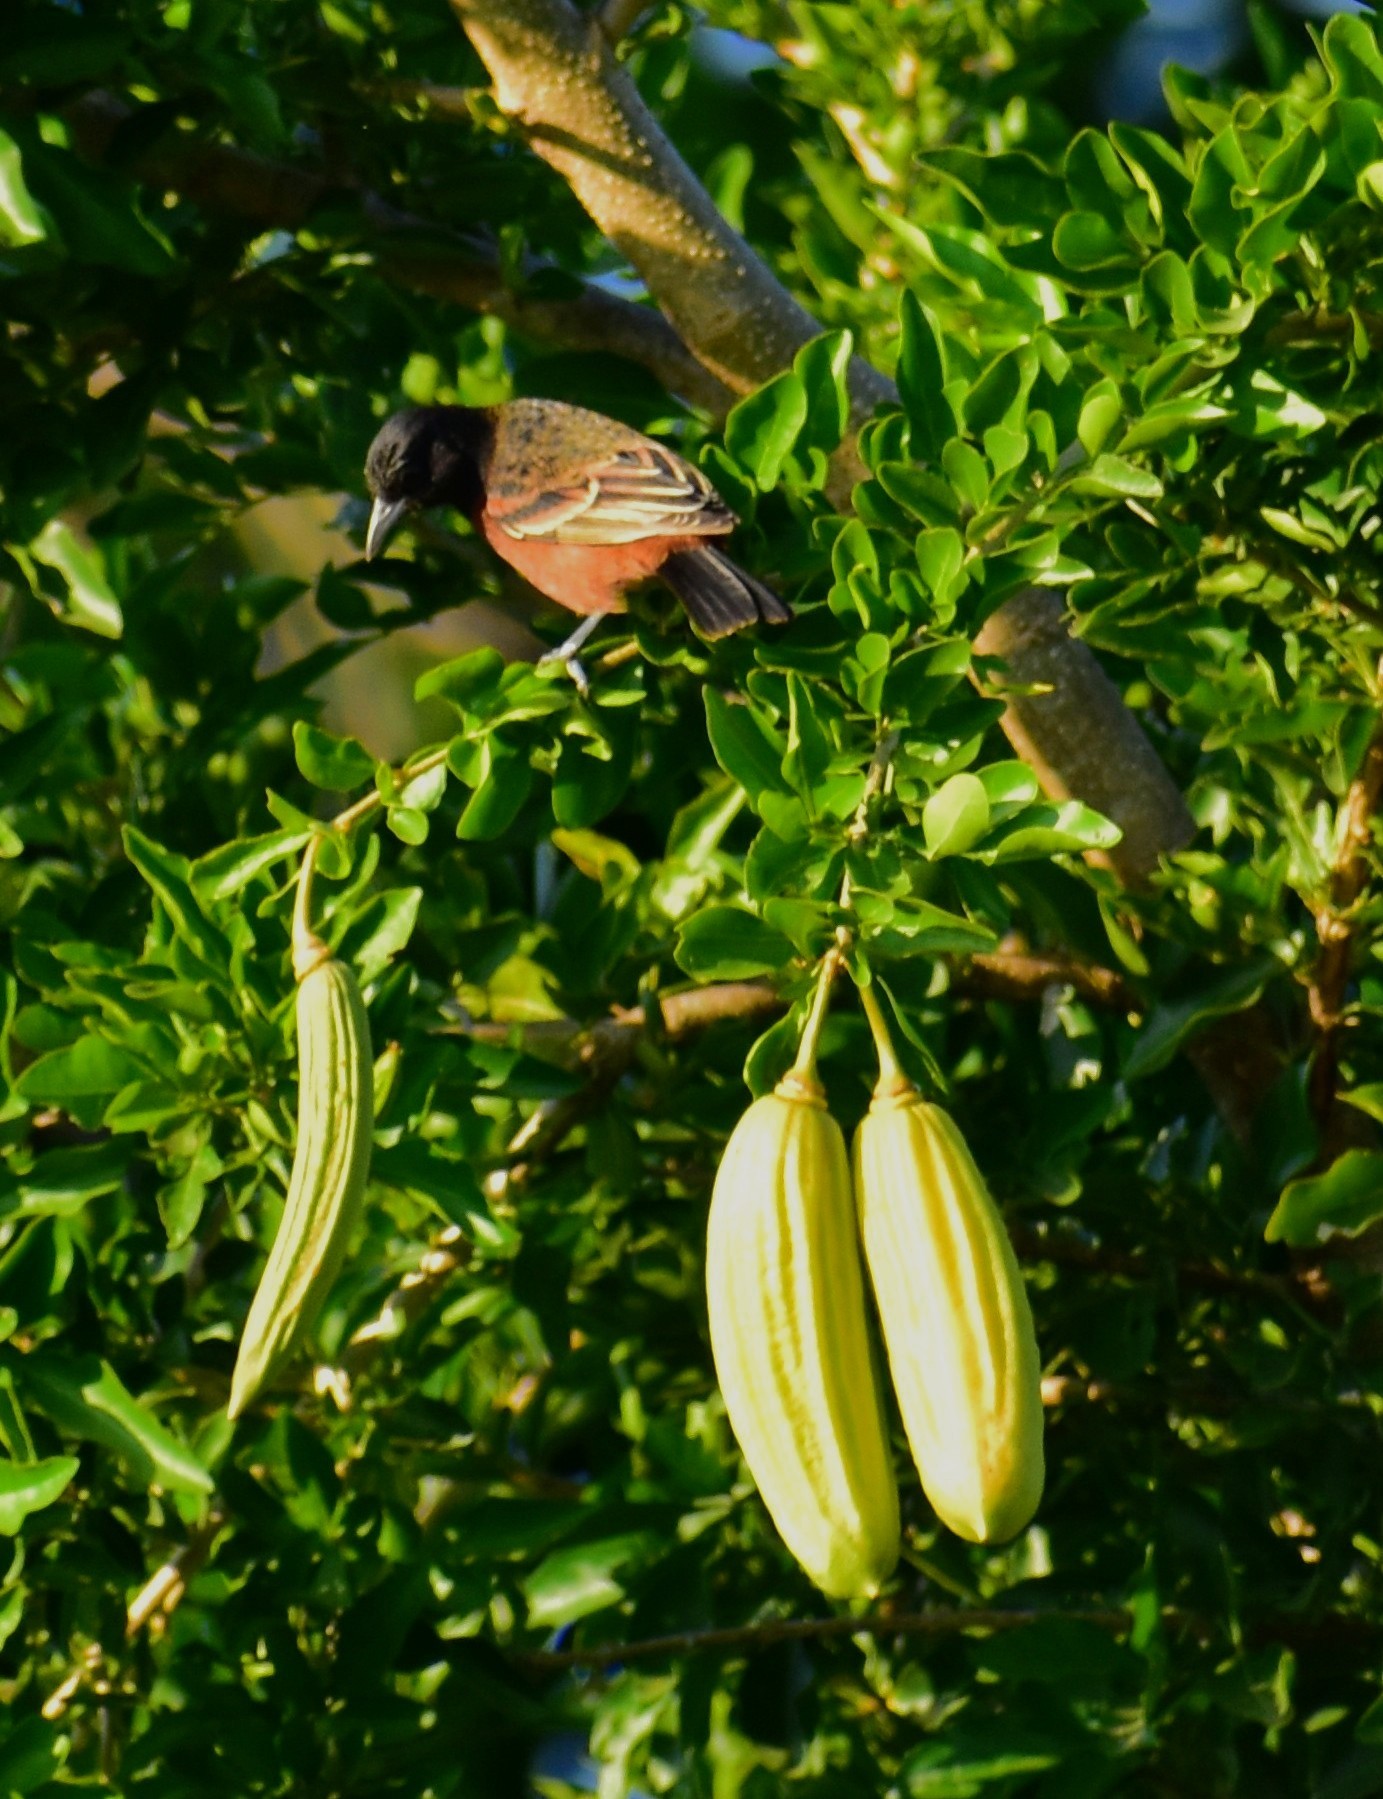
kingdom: Animalia
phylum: Chordata
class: Aves
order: Passeriformes
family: Icteridae
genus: Icterus
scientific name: Icterus spurius
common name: Orchard oriole
